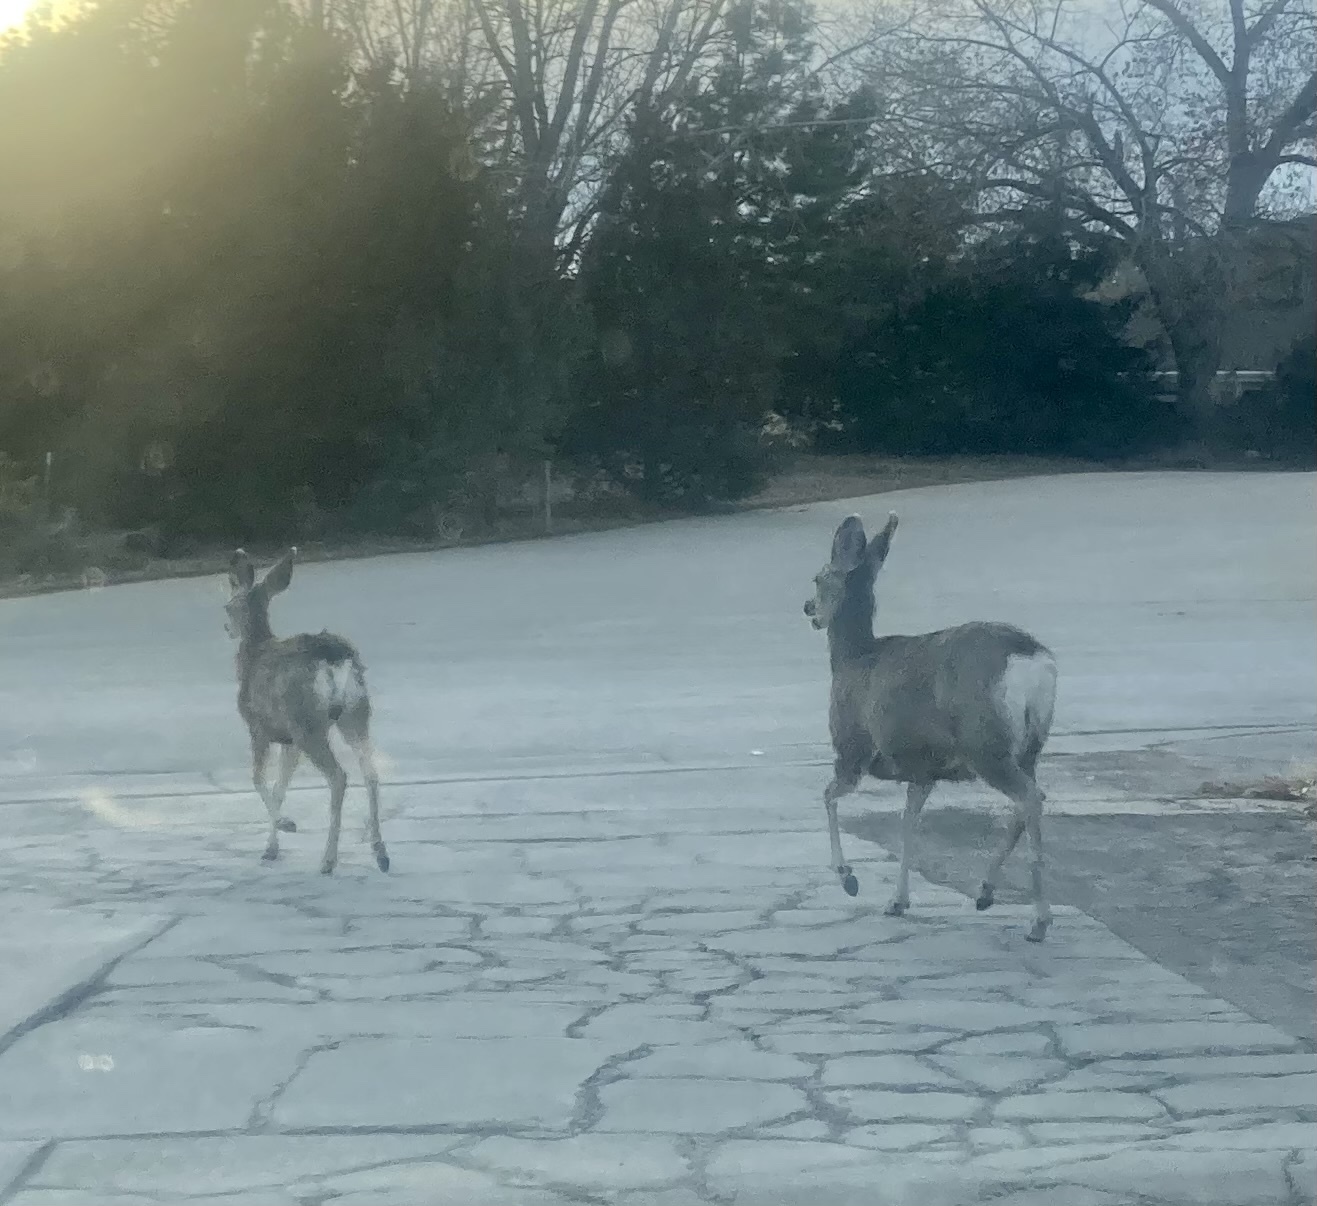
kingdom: Animalia
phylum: Chordata
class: Mammalia
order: Artiodactyla
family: Cervidae
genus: Odocoileus
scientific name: Odocoileus hemionus
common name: Mule deer
